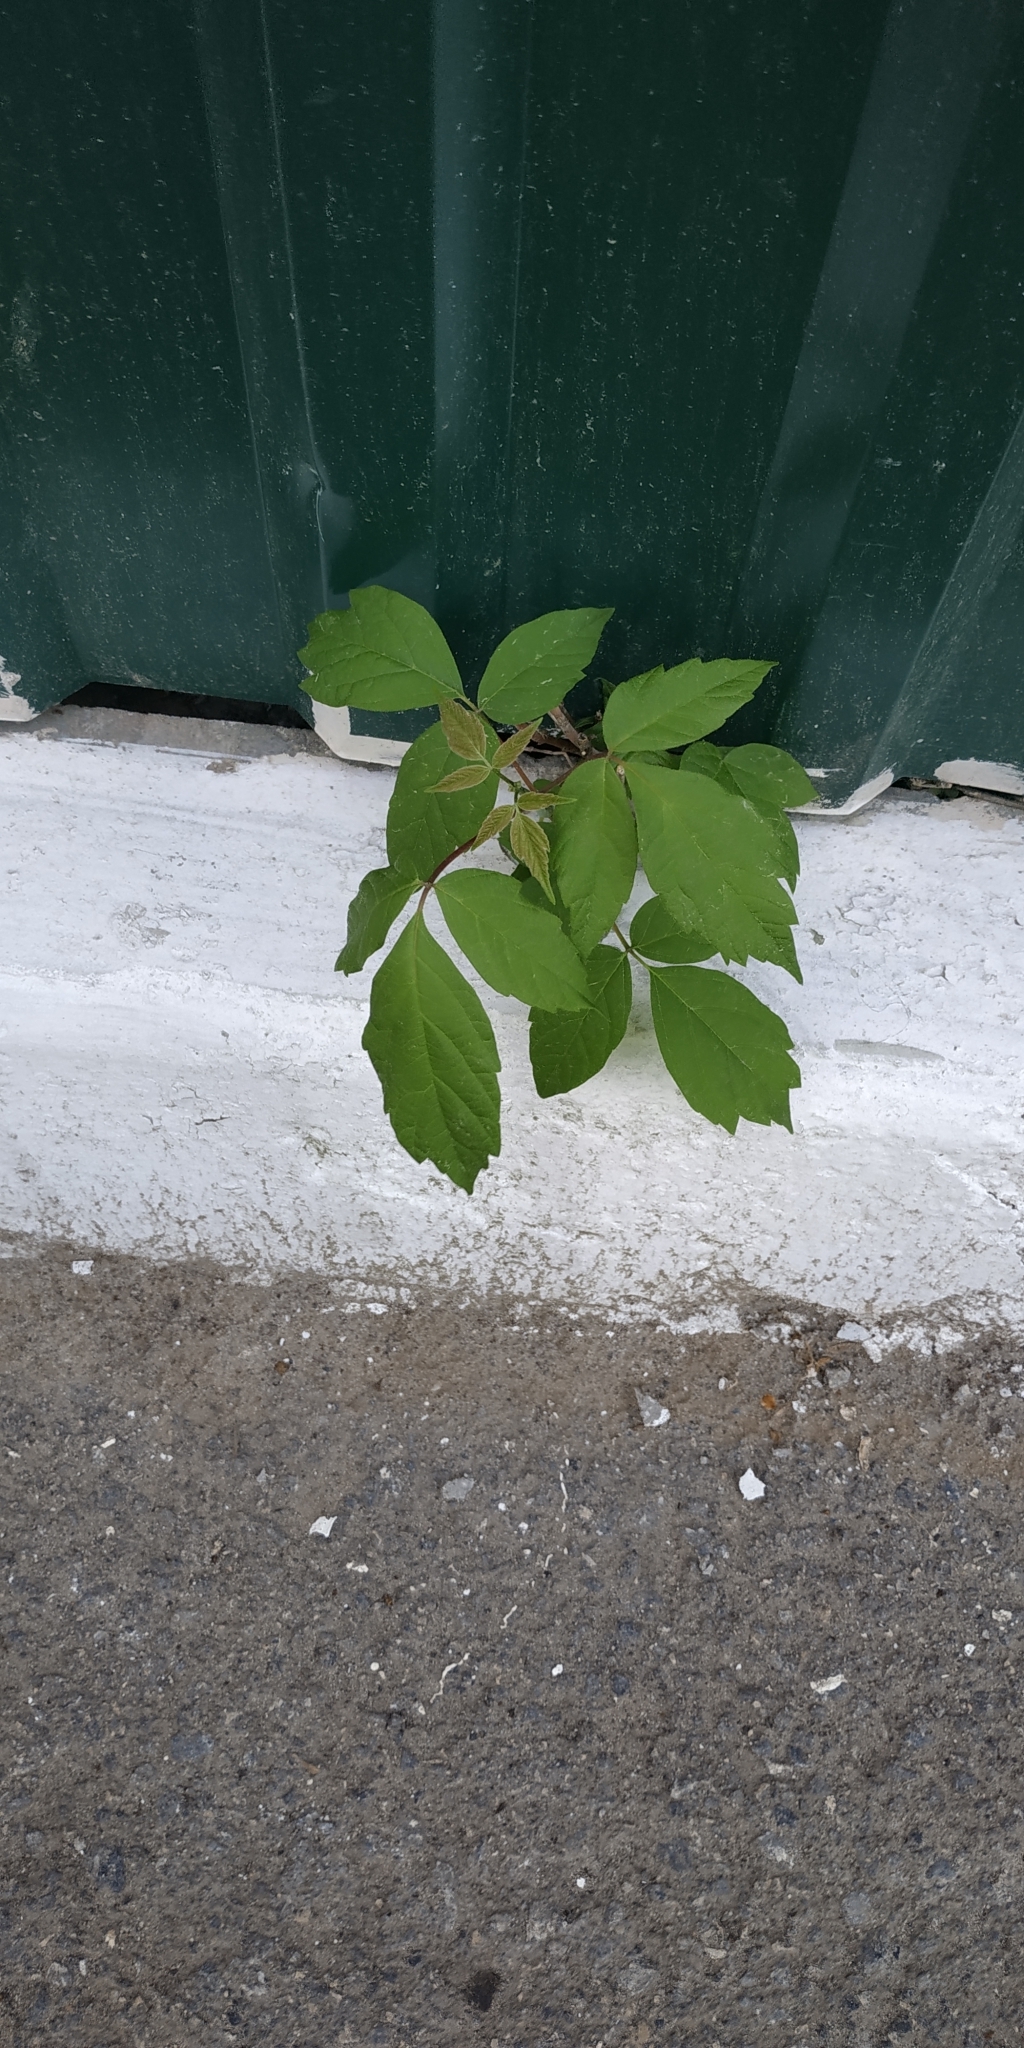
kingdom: Plantae
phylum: Tracheophyta
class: Magnoliopsida
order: Sapindales
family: Sapindaceae
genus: Acer
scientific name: Acer negundo
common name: Ashleaf maple
